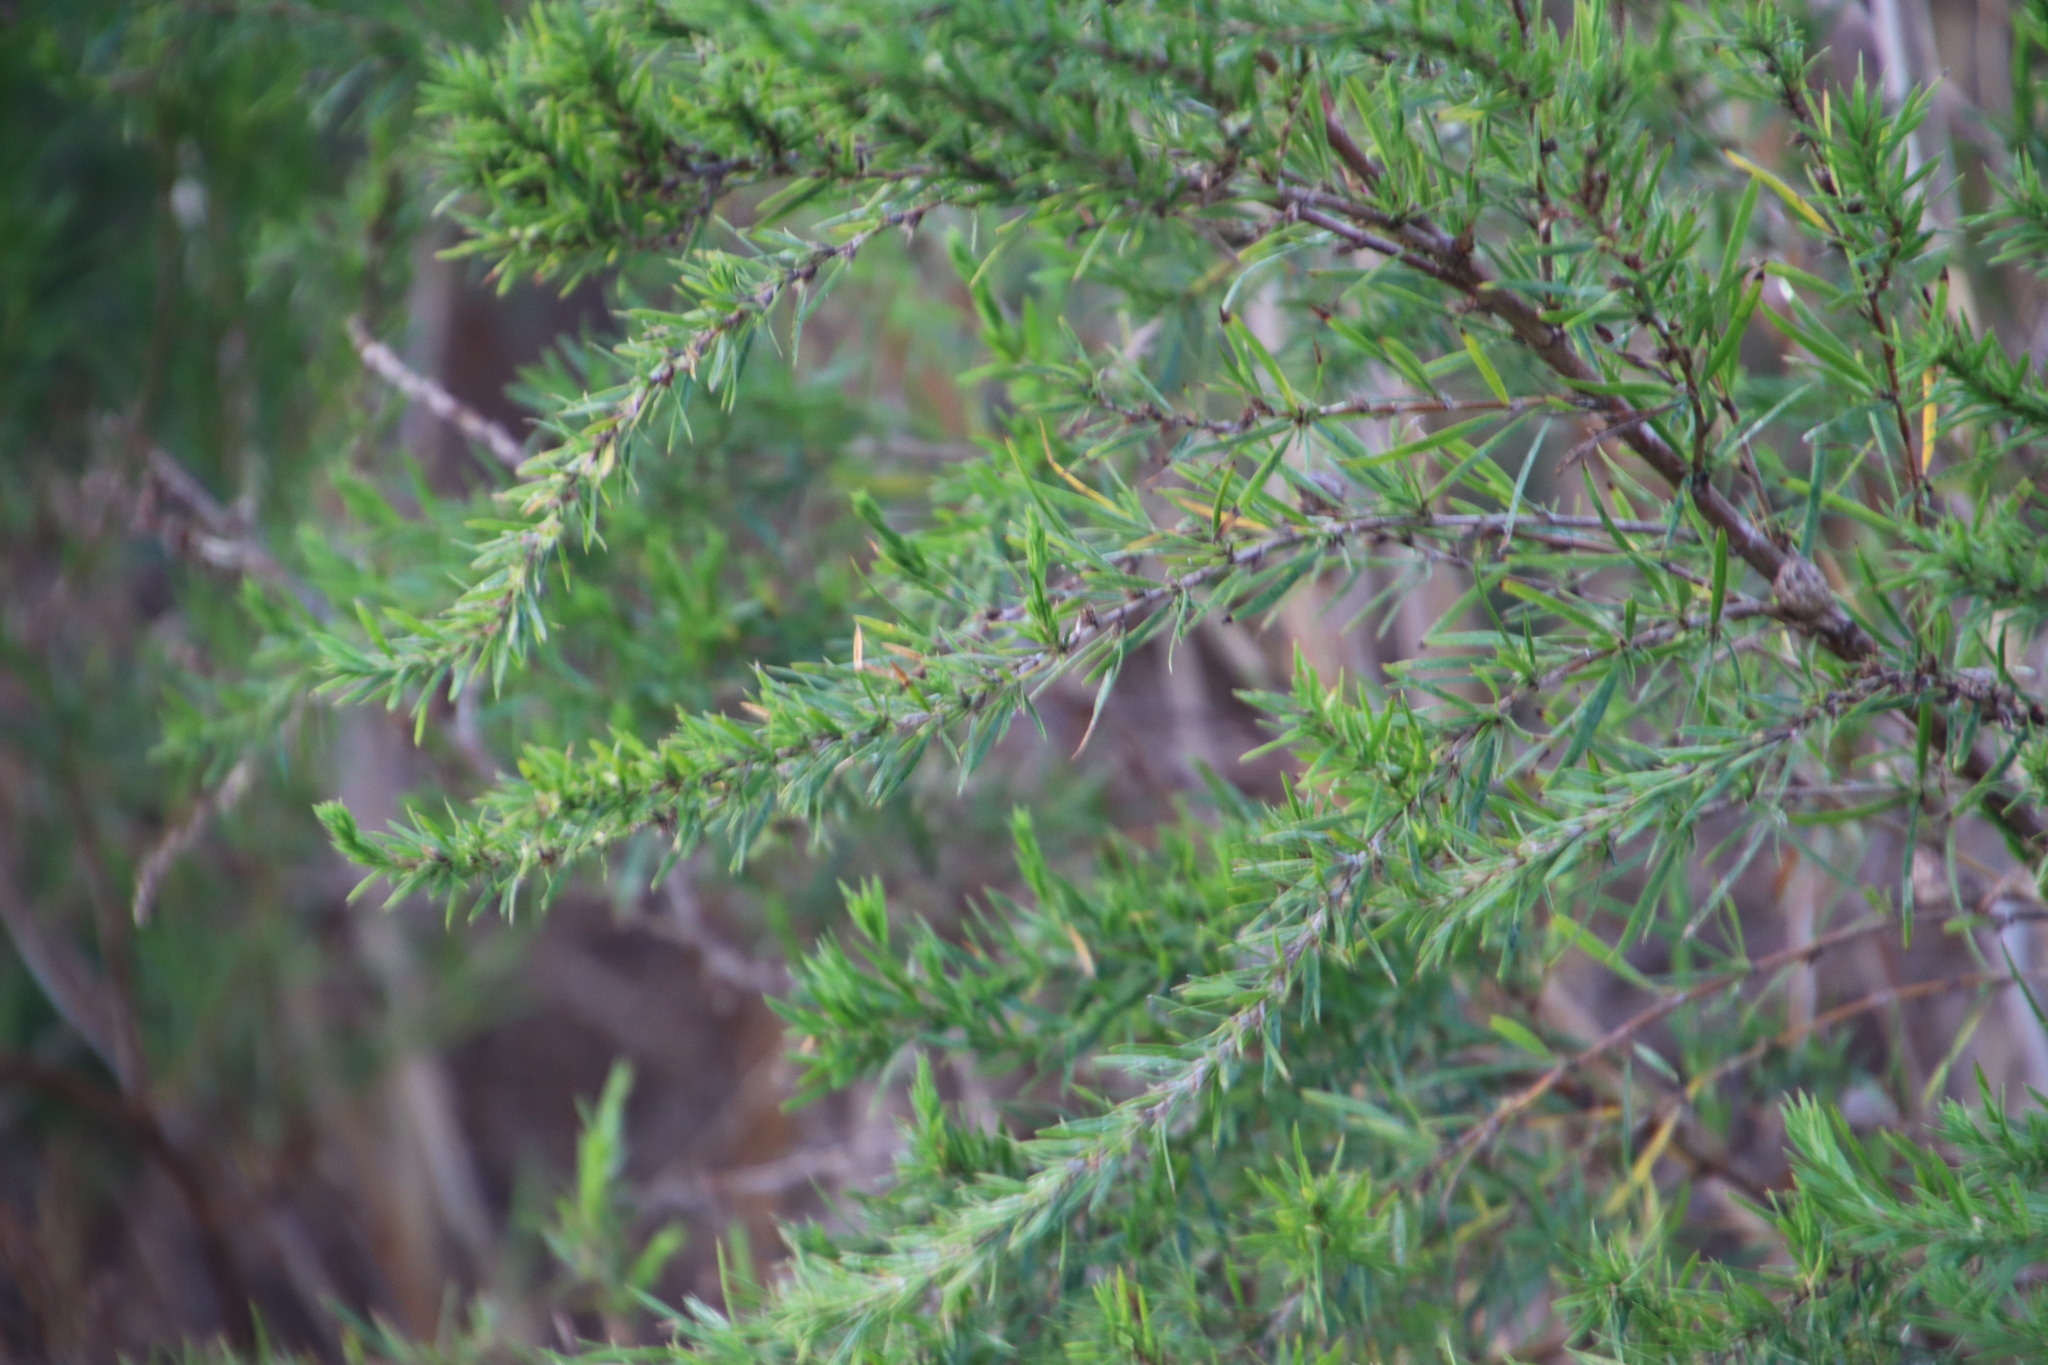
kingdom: Plantae
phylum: Tracheophyta
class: Magnoliopsida
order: Rosales
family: Rosaceae
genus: Cliffortia
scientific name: Cliffortia strobilifera
